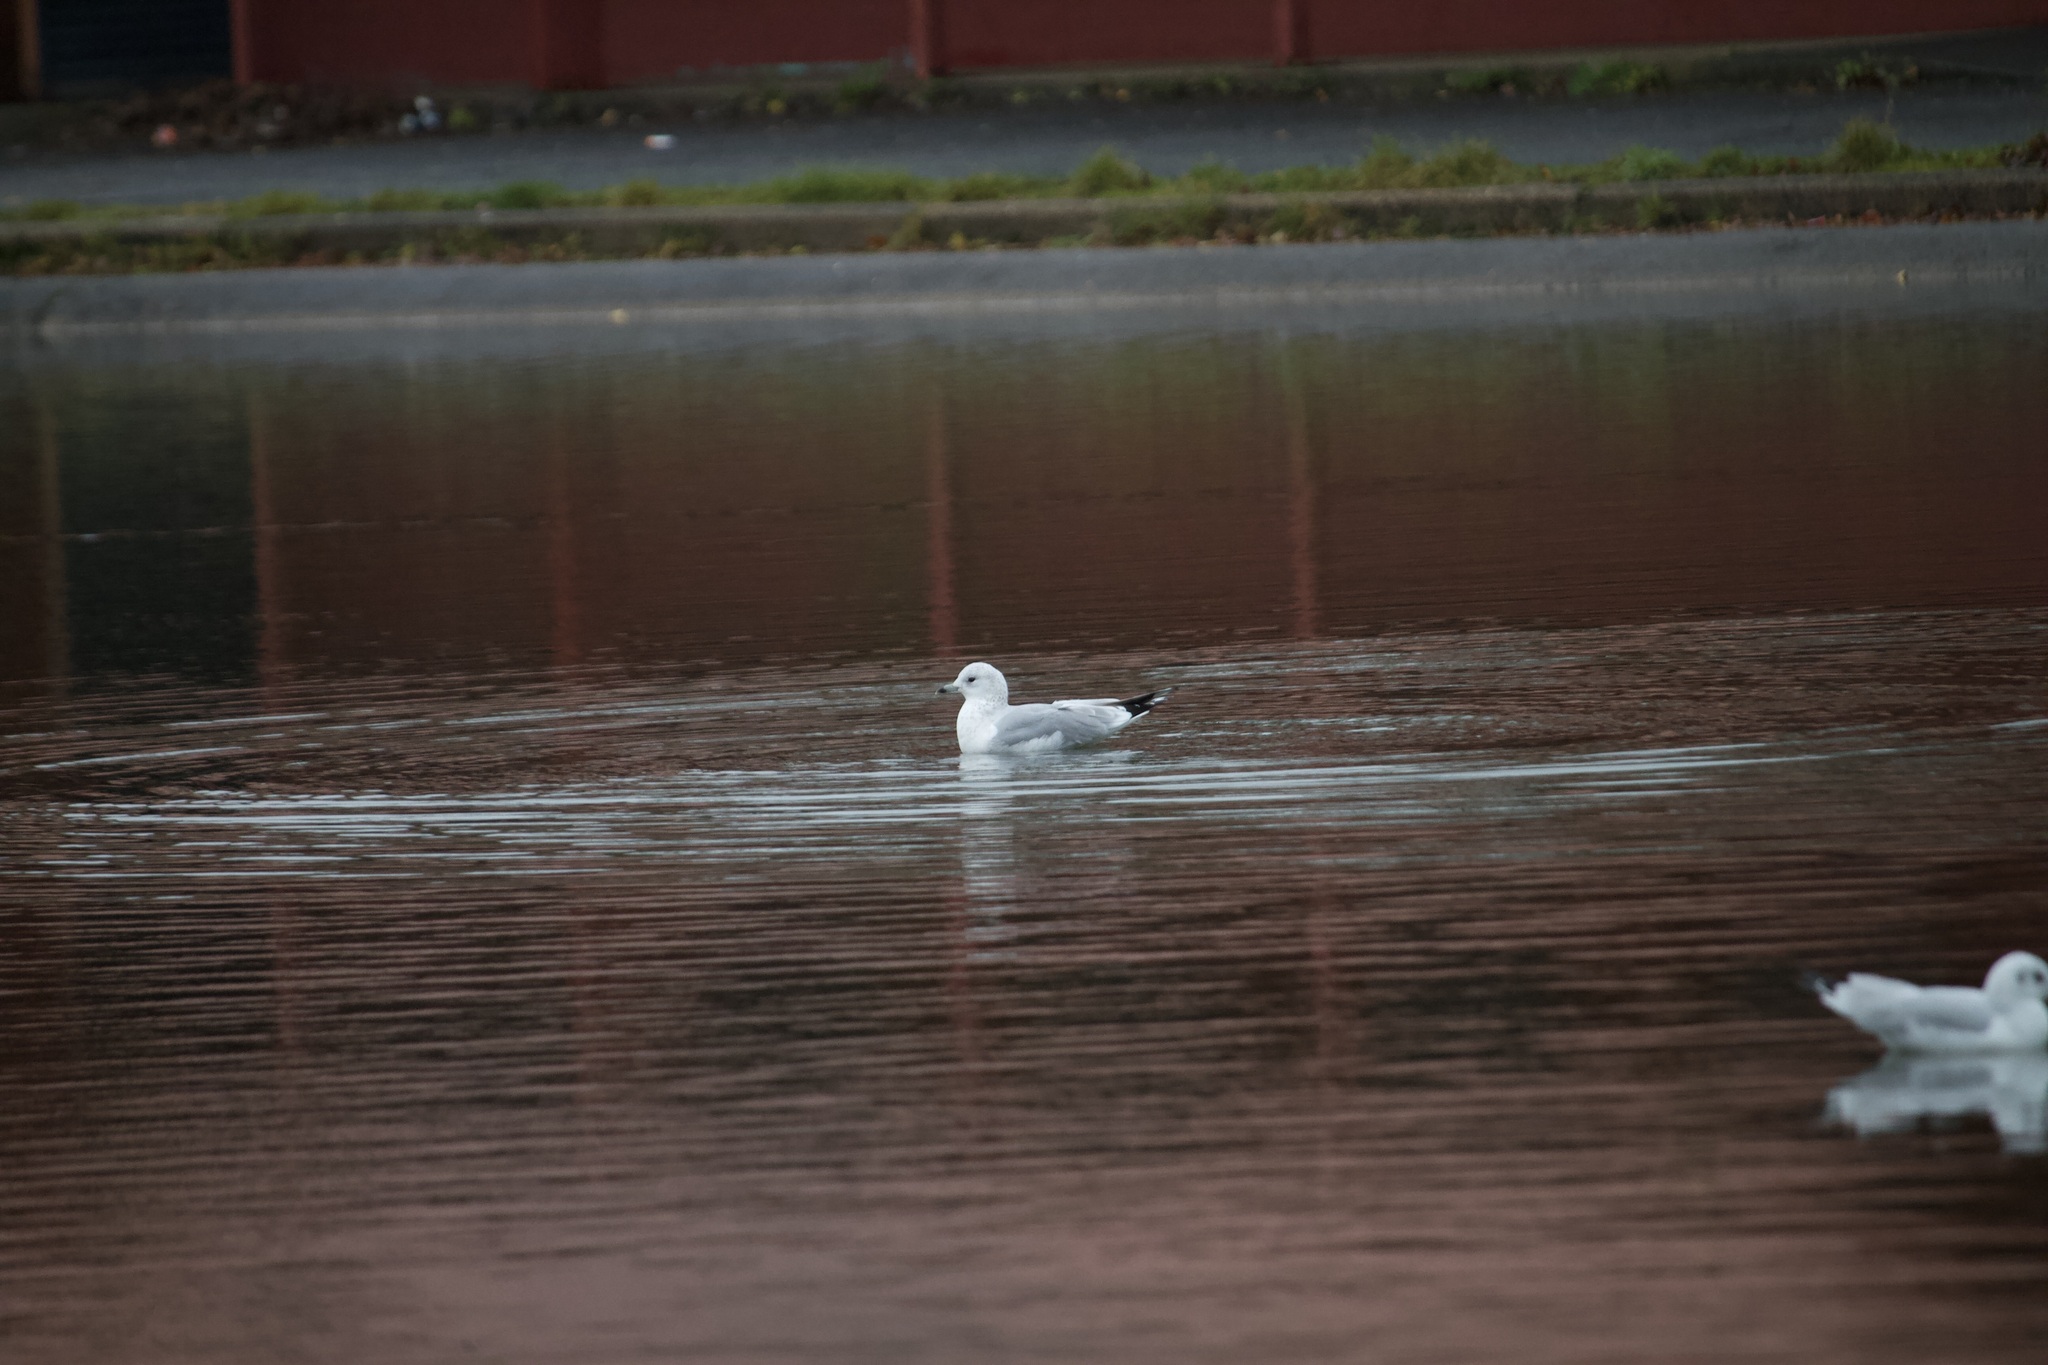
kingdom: Animalia
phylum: Chordata
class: Aves
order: Charadriiformes
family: Laridae
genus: Larus
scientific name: Larus canus
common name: Mew gull
